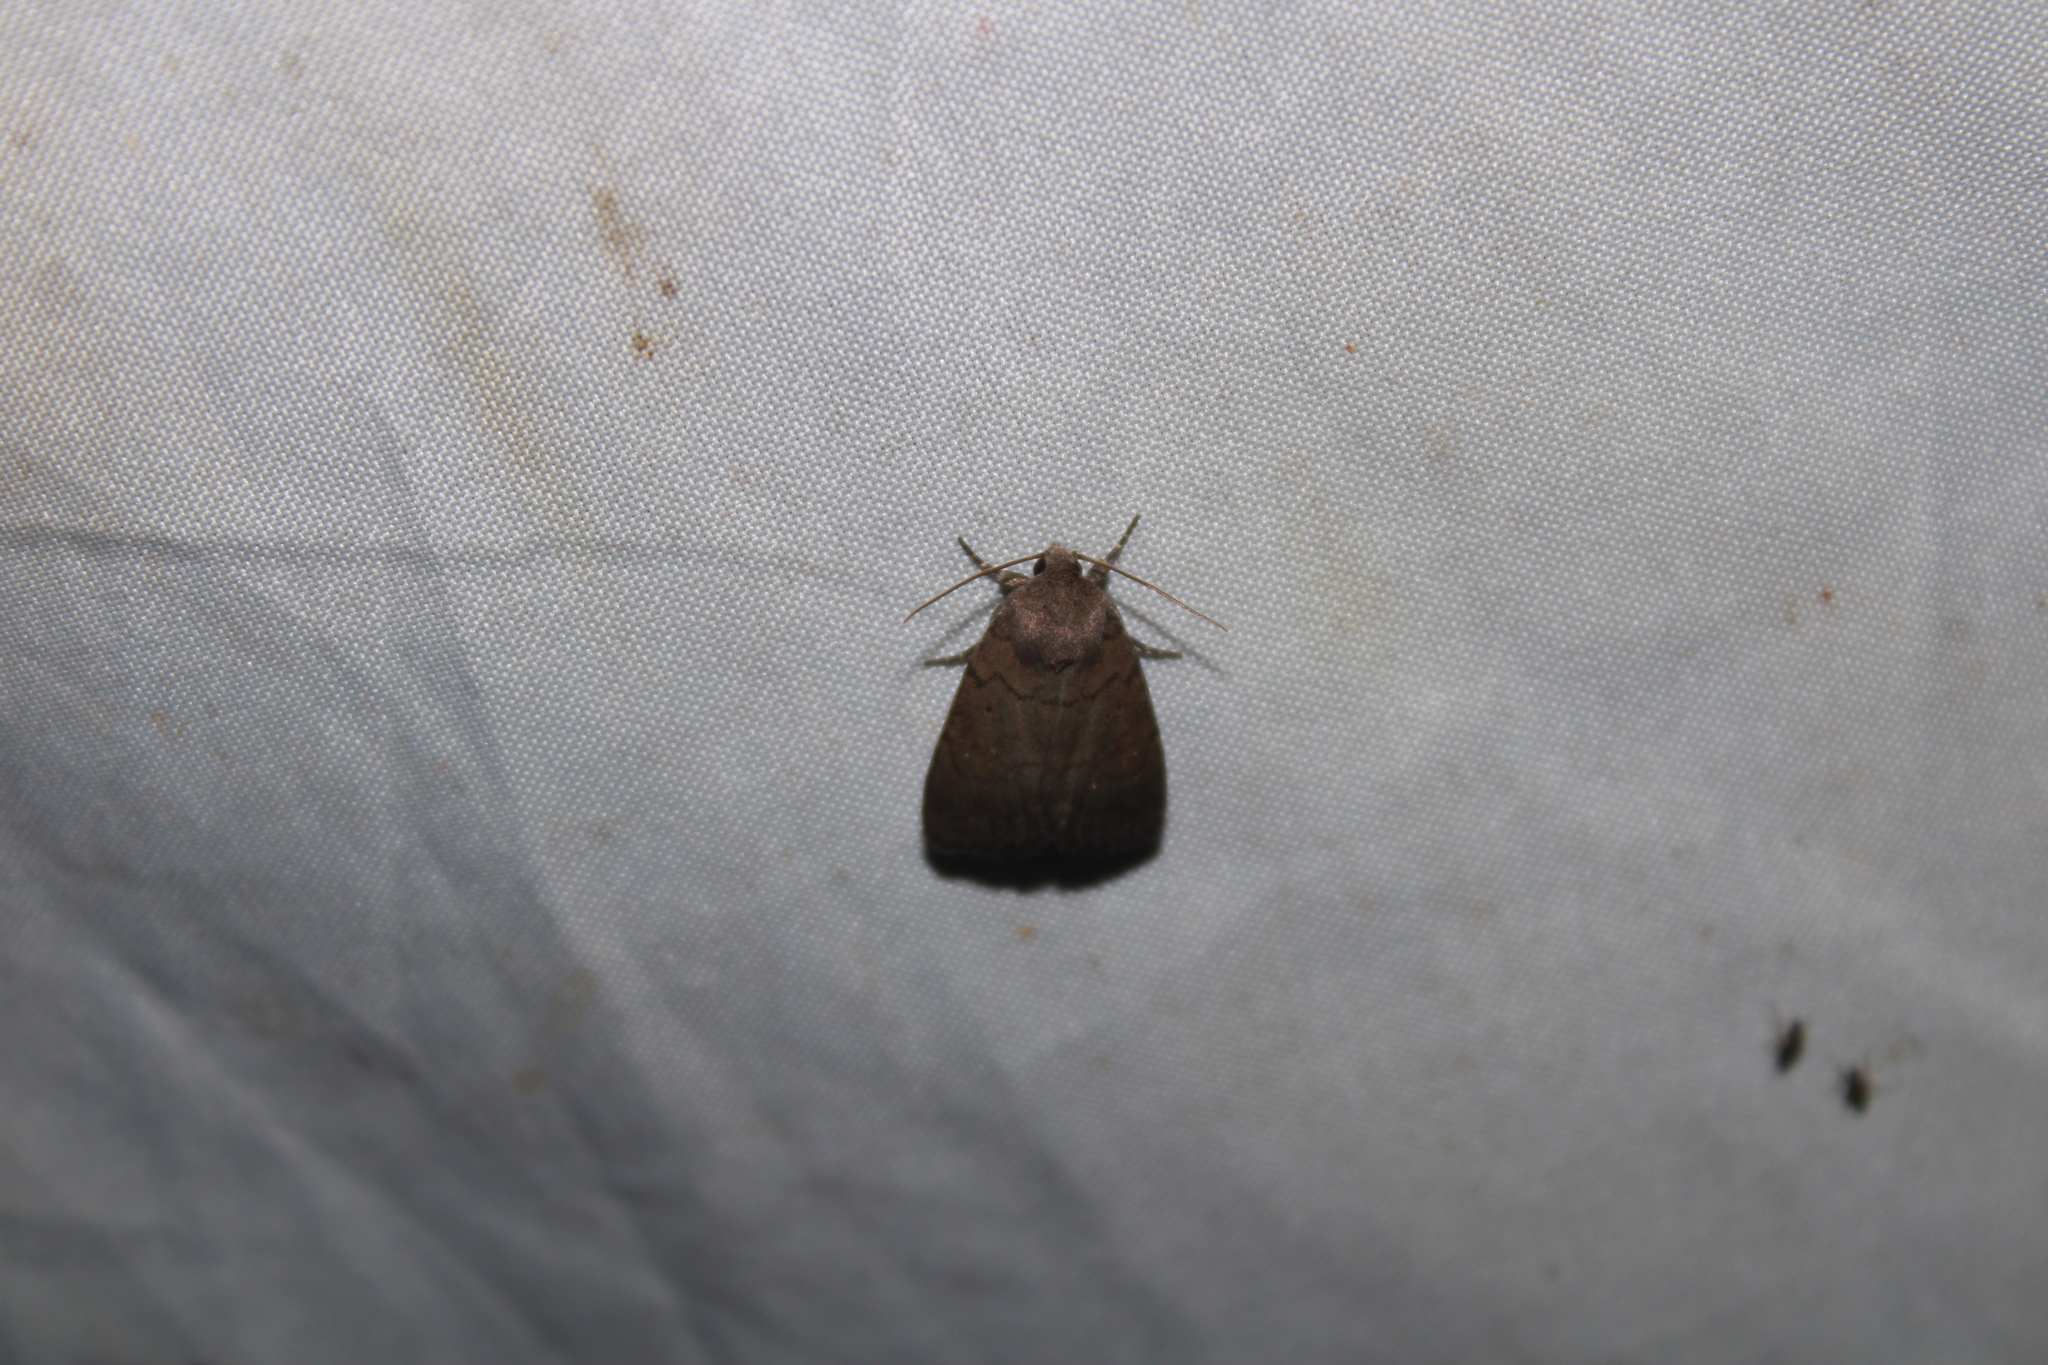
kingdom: Animalia
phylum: Arthropoda
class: Insecta
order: Lepidoptera
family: Noctuidae
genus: Athetis
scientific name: Athetis tarda
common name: Slowpoke moth
